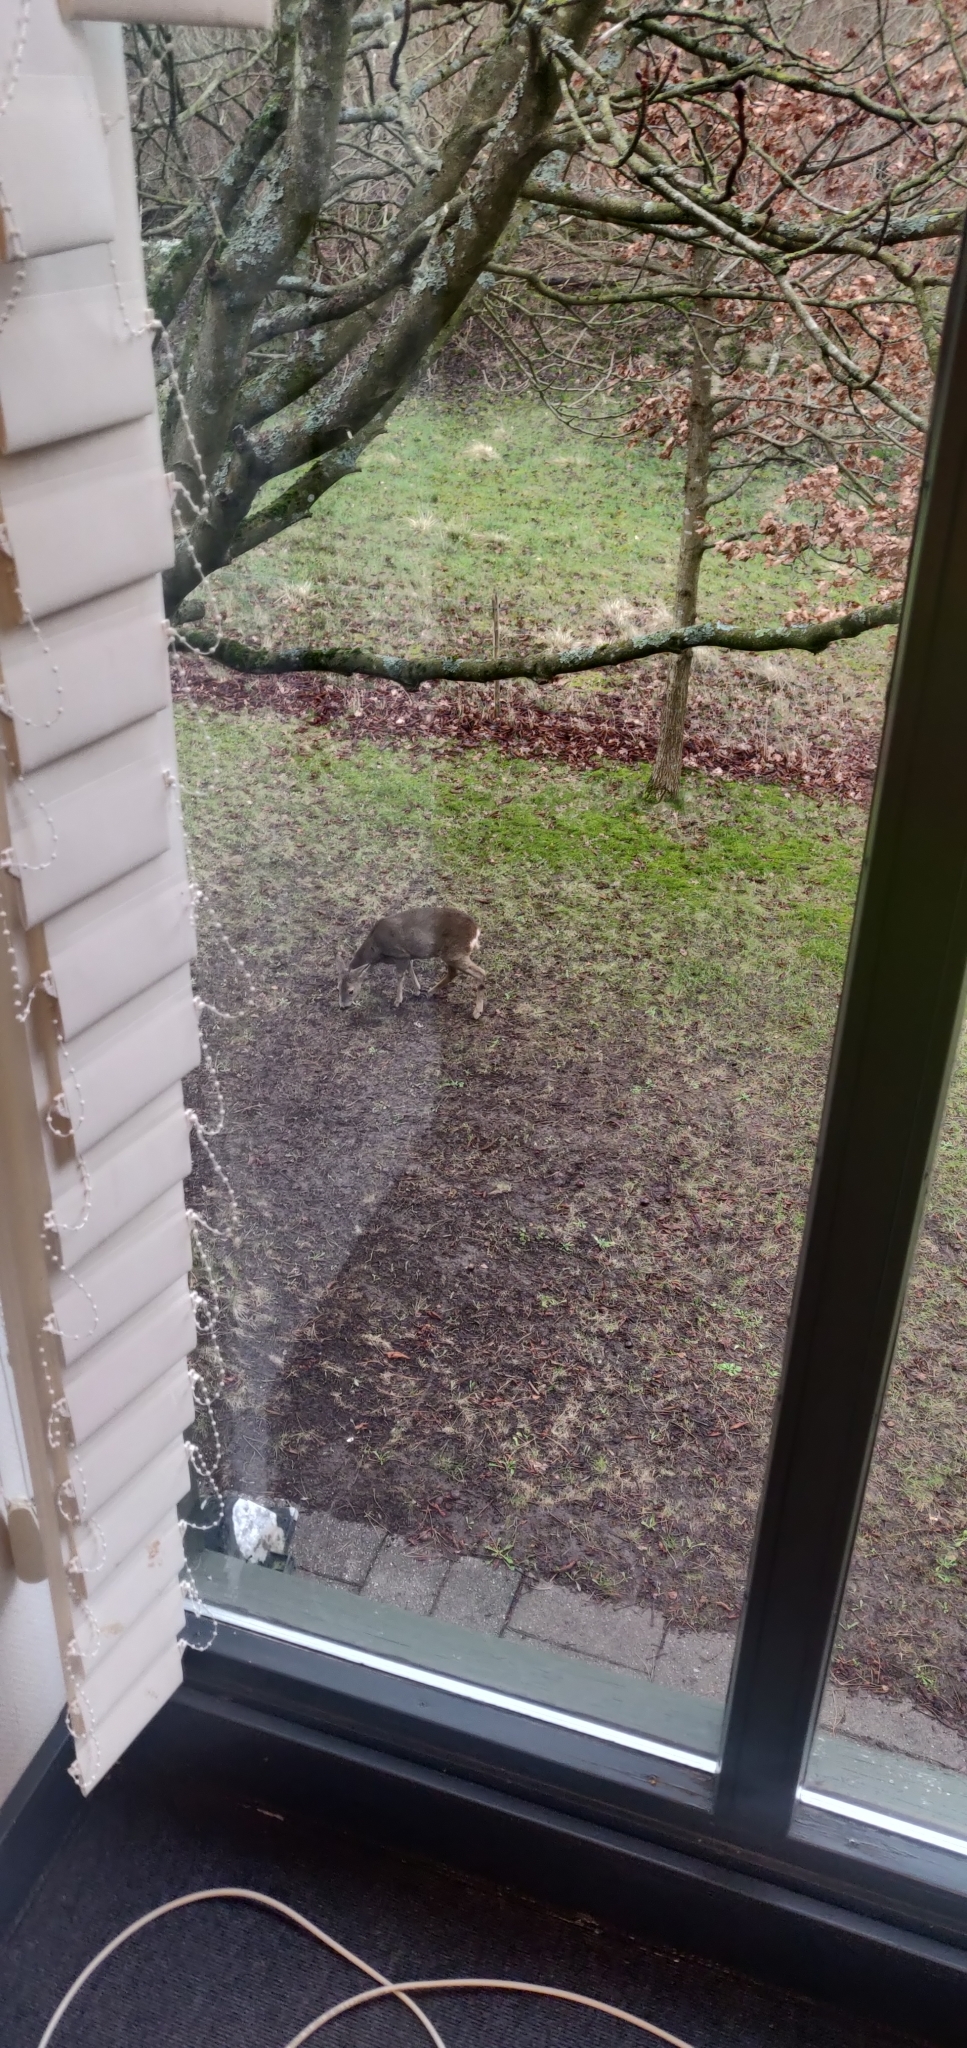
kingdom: Animalia
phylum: Chordata
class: Mammalia
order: Artiodactyla
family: Cervidae
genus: Capreolus
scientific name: Capreolus capreolus
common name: Western roe deer
